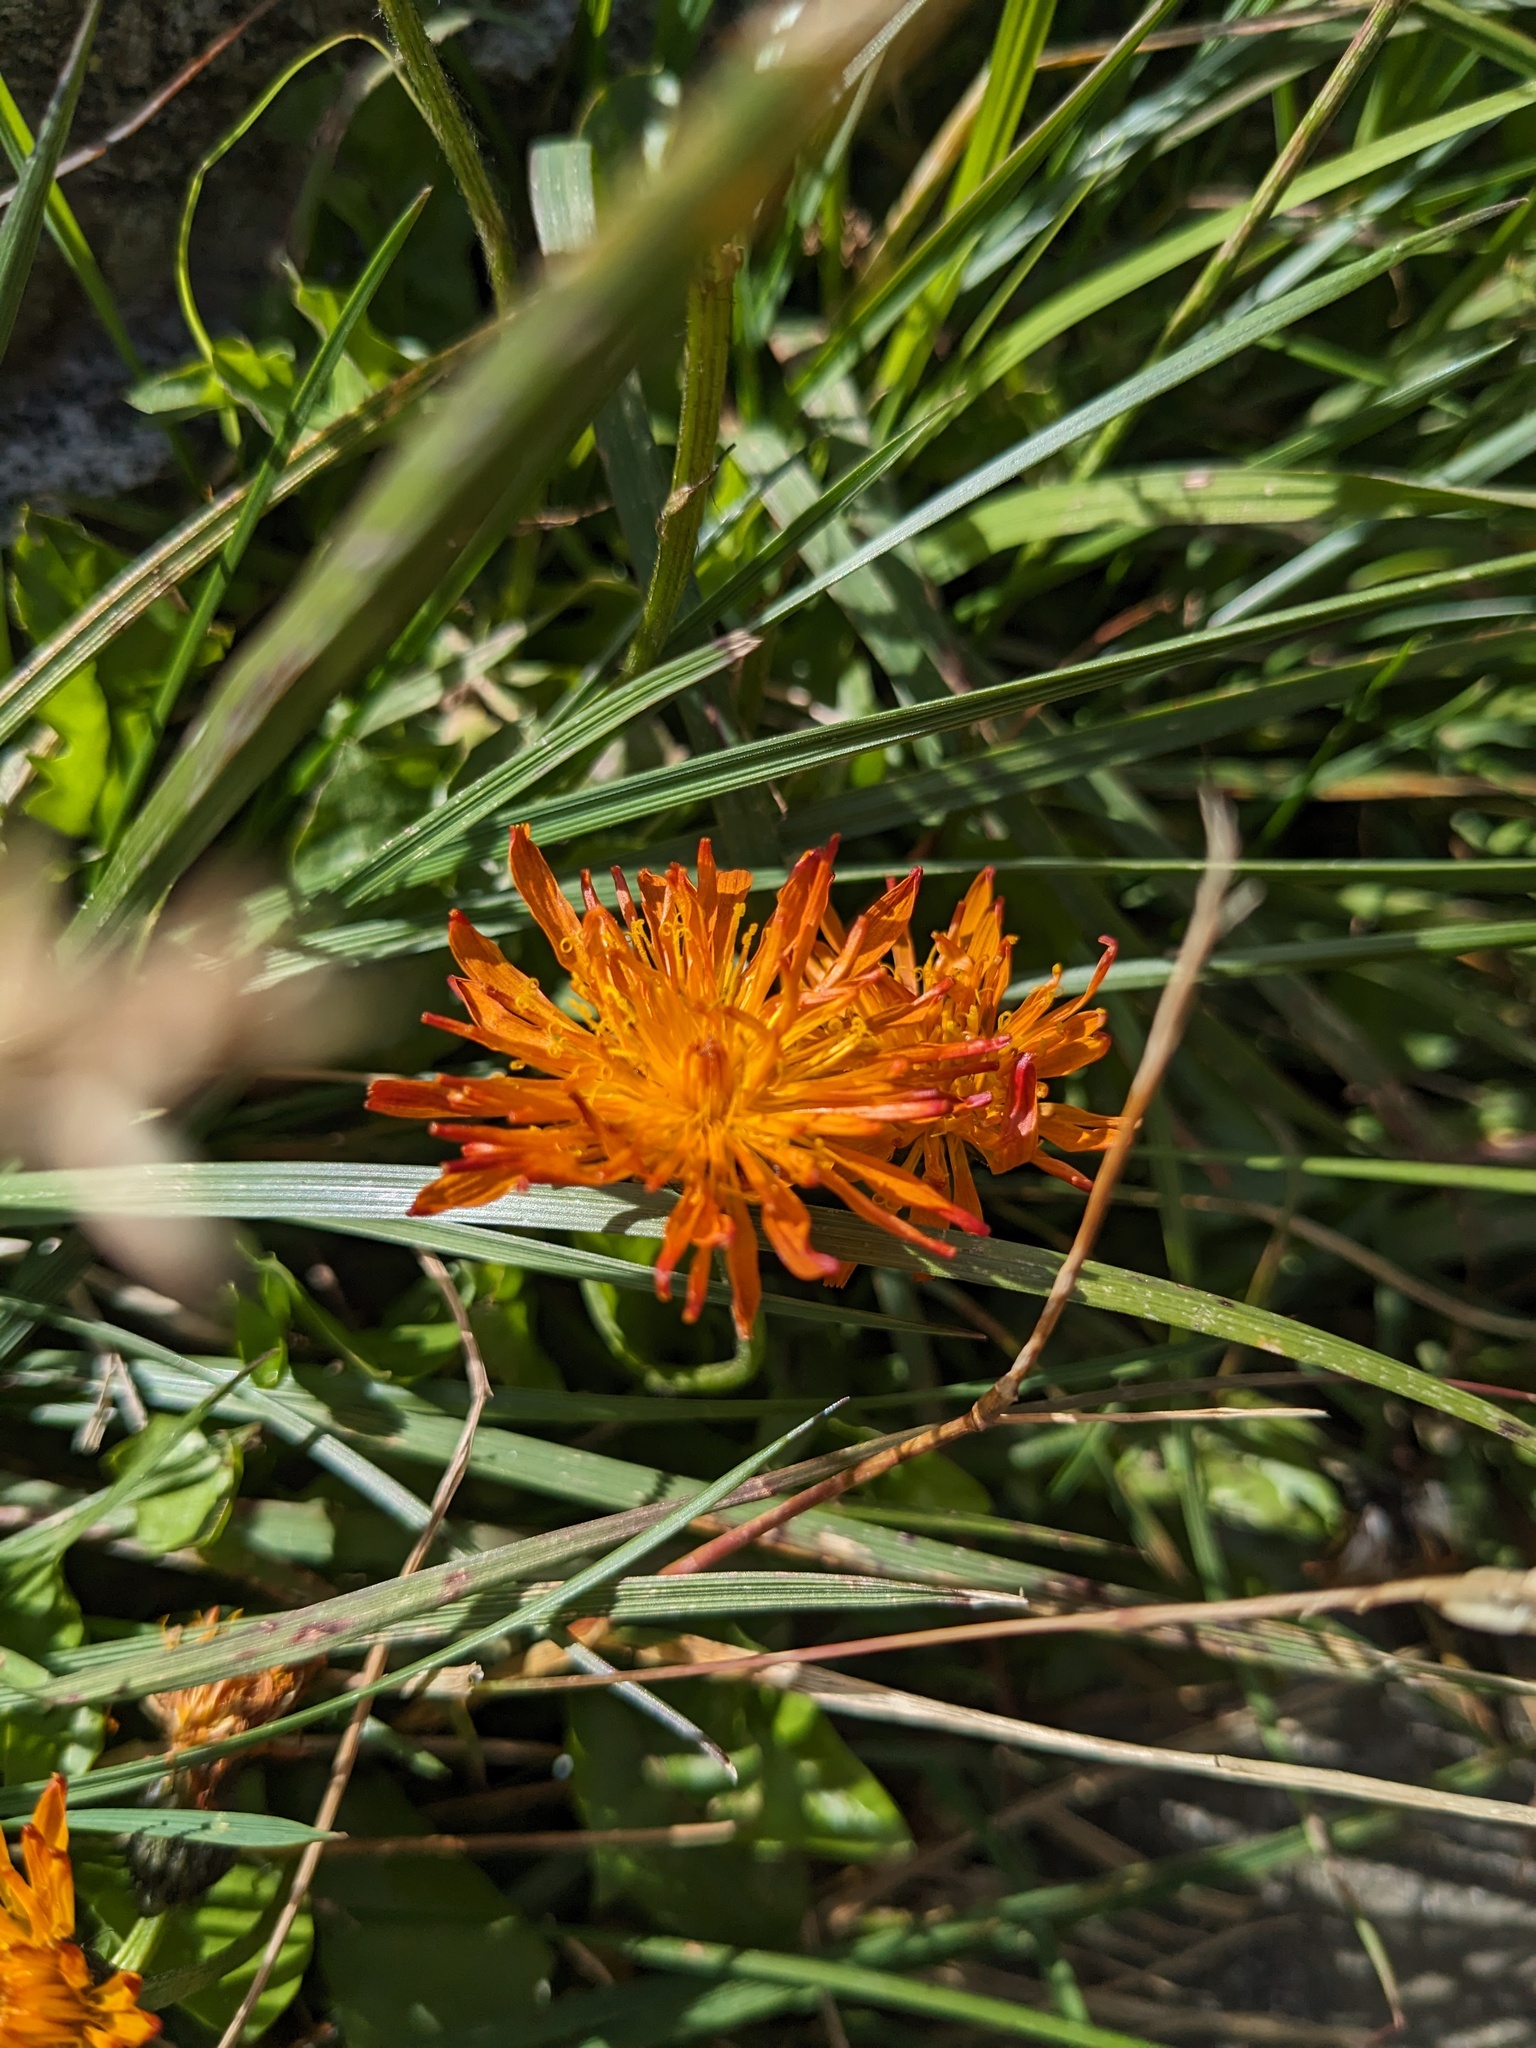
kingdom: Plantae
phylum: Tracheophyta
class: Magnoliopsida
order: Asterales
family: Asteraceae
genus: Crepis
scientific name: Crepis aurea
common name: Golden hawk's-beard
